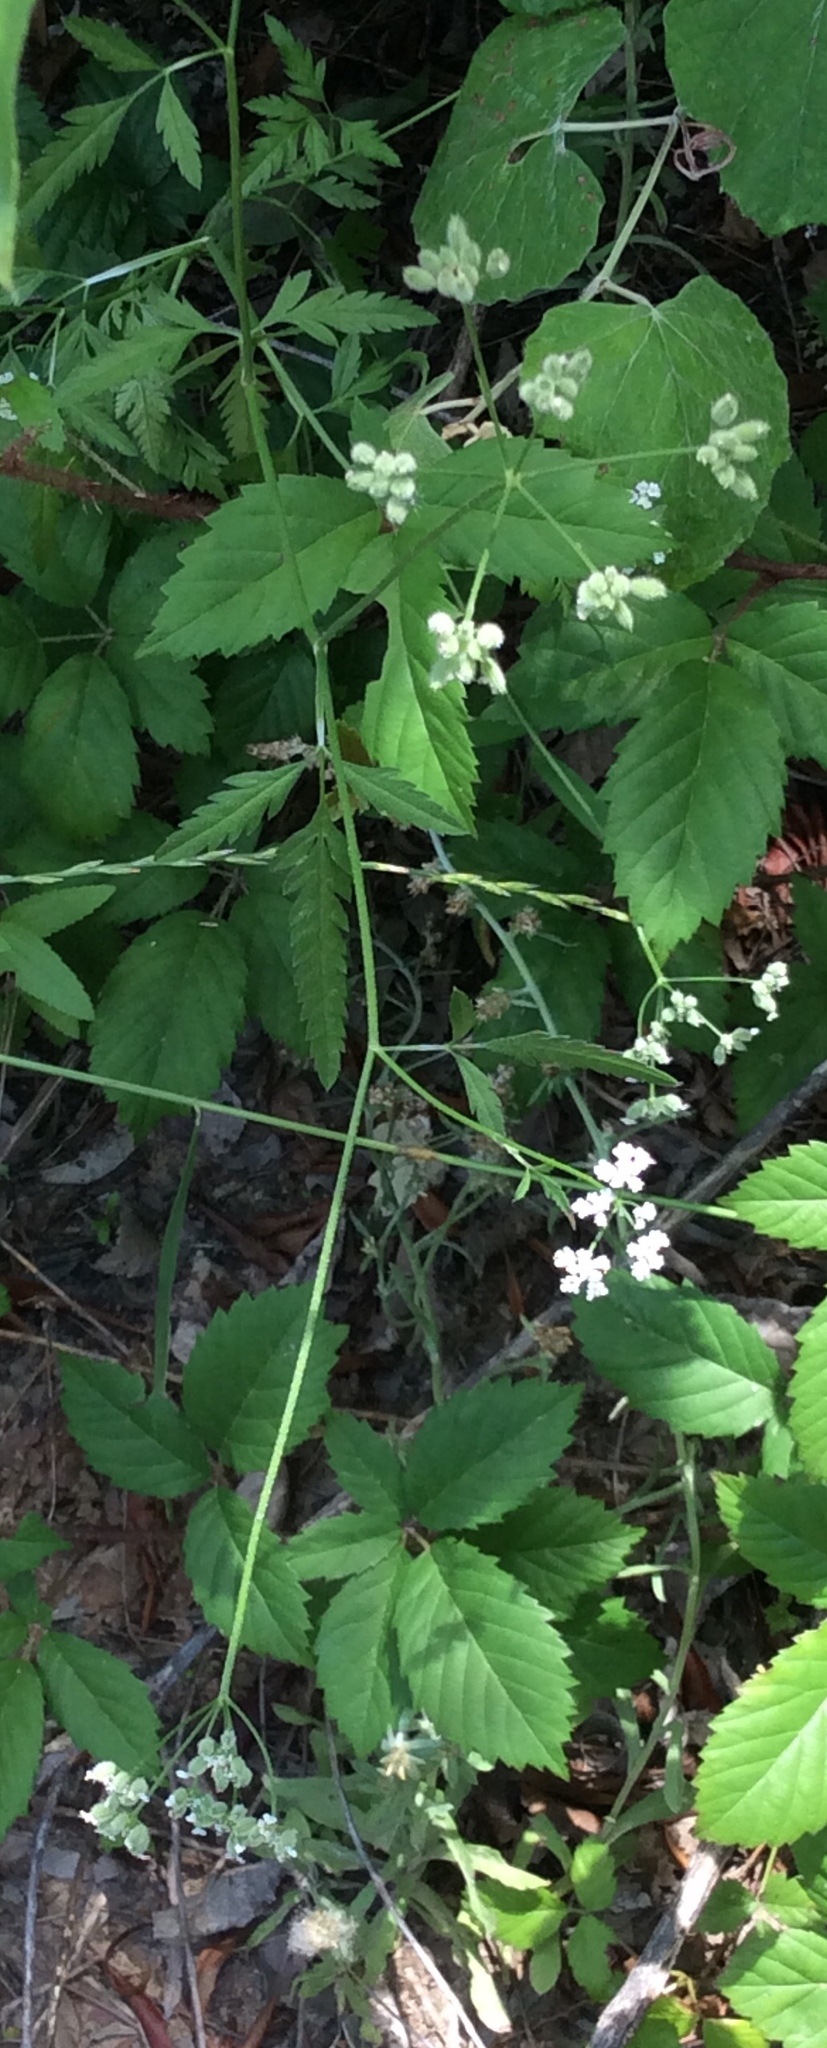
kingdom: Plantae
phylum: Tracheophyta
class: Magnoliopsida
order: Apiales
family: Apiaceae
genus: Torilis
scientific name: Torilis arvensis
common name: Spreading hedge-parsley
